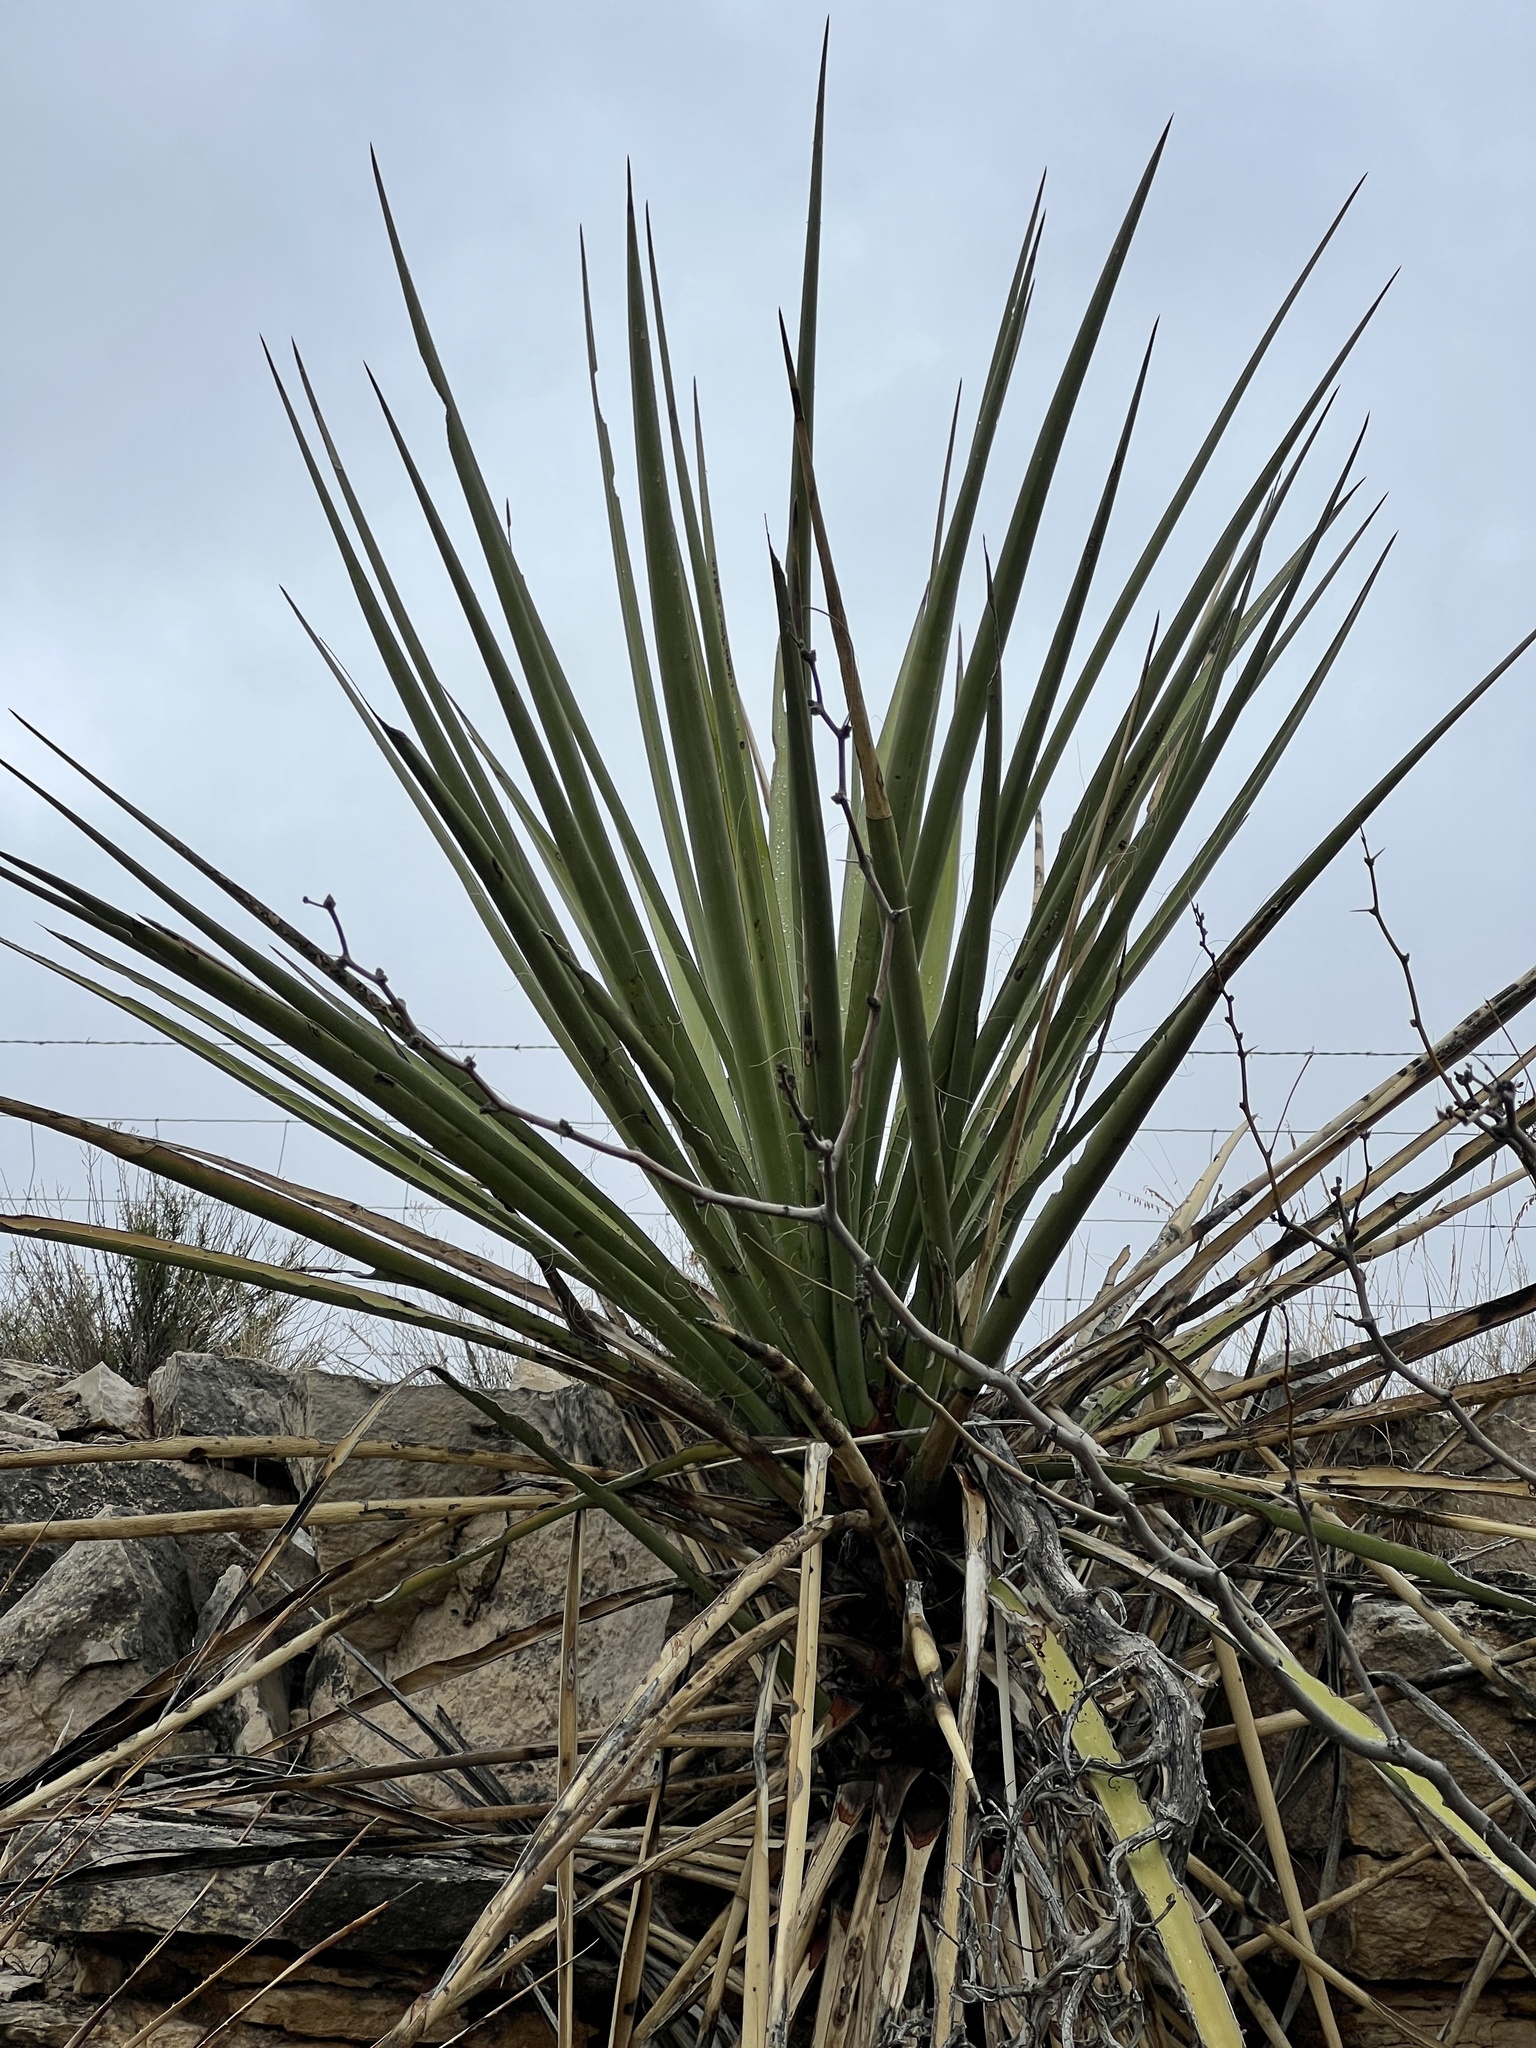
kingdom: Plantae
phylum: Tracheophyta
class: Liliopsida
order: Asparagales
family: Asparagaceae
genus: Yucca
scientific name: Yucca treculiana
